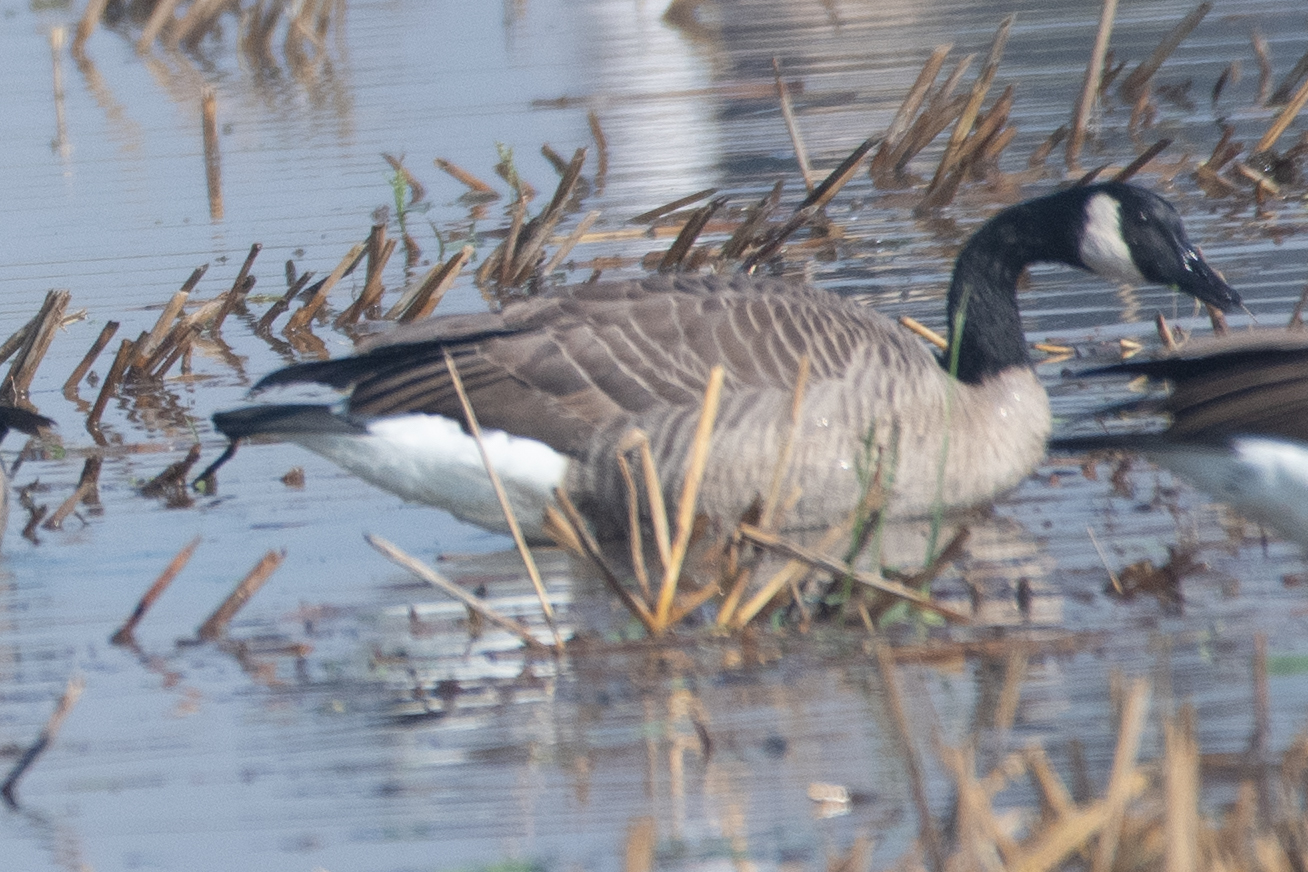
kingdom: Animalia
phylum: Chordata
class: Aves
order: Anseriformes
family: Anatidae
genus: Branta
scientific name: Branta canadensis
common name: Canada goose
